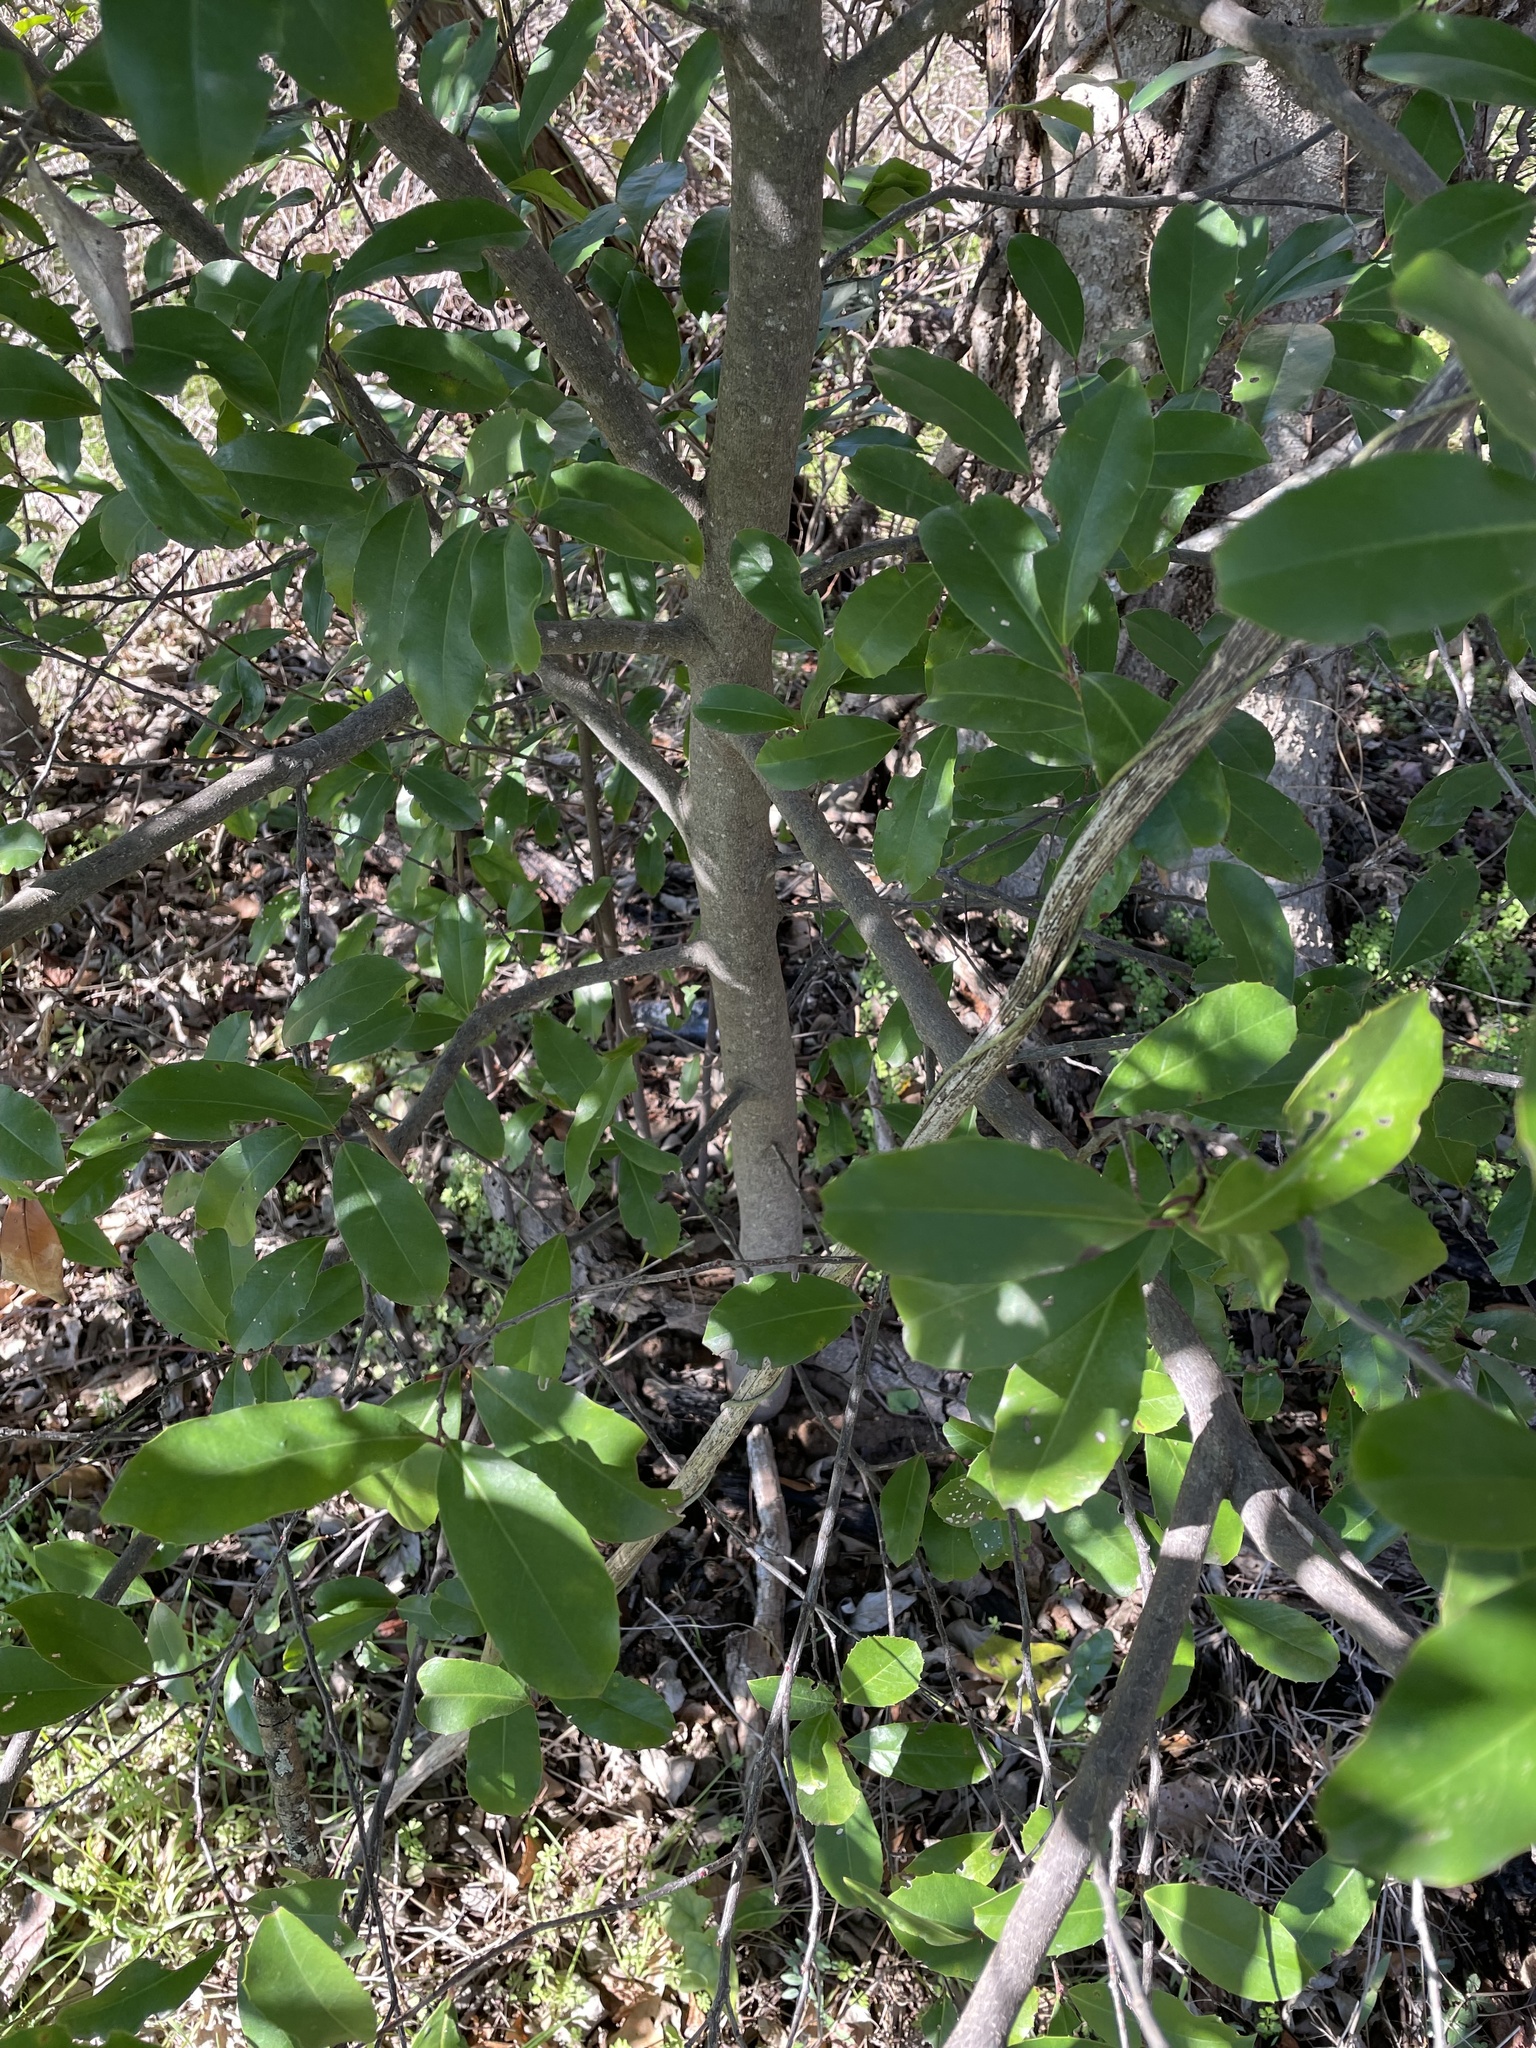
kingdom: Plantae
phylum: Tracheophyta
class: Magnoliopsida
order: Rosales
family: Rosaceae
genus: Prunus
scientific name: Prunus caroliniana
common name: Carolina laurel cherry
